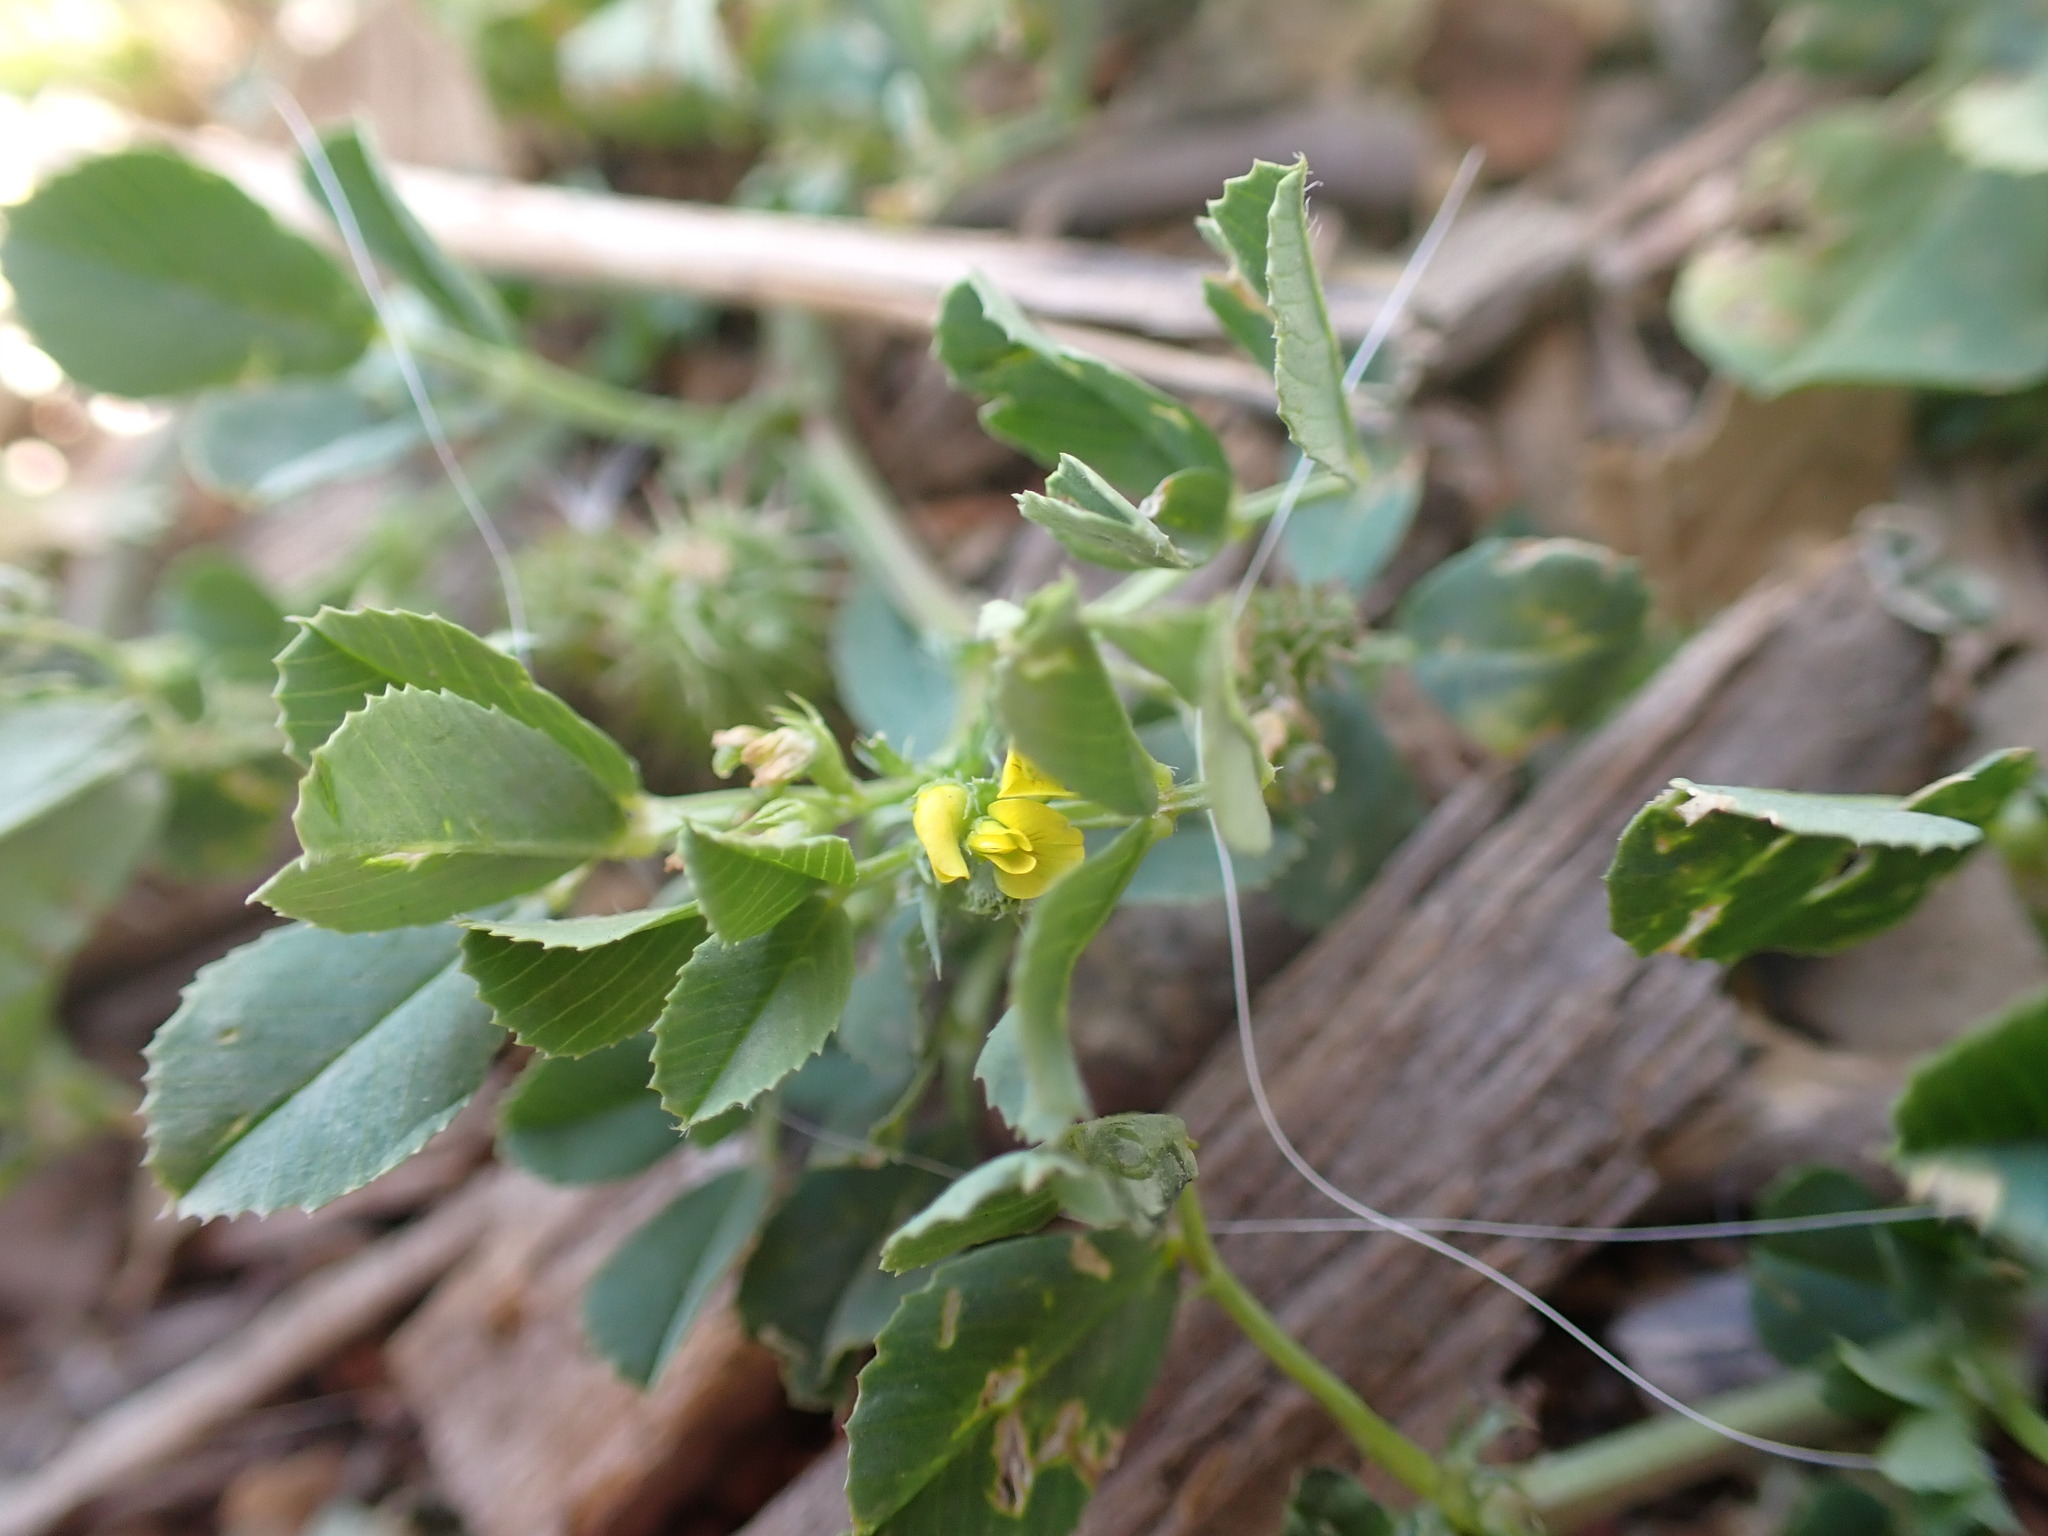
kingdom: Plantae
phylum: Tracheophyta
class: Magnoliopsida
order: Fabales
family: Fabaceae
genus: Medicago
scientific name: Medicago polymorpha
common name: Burclover
